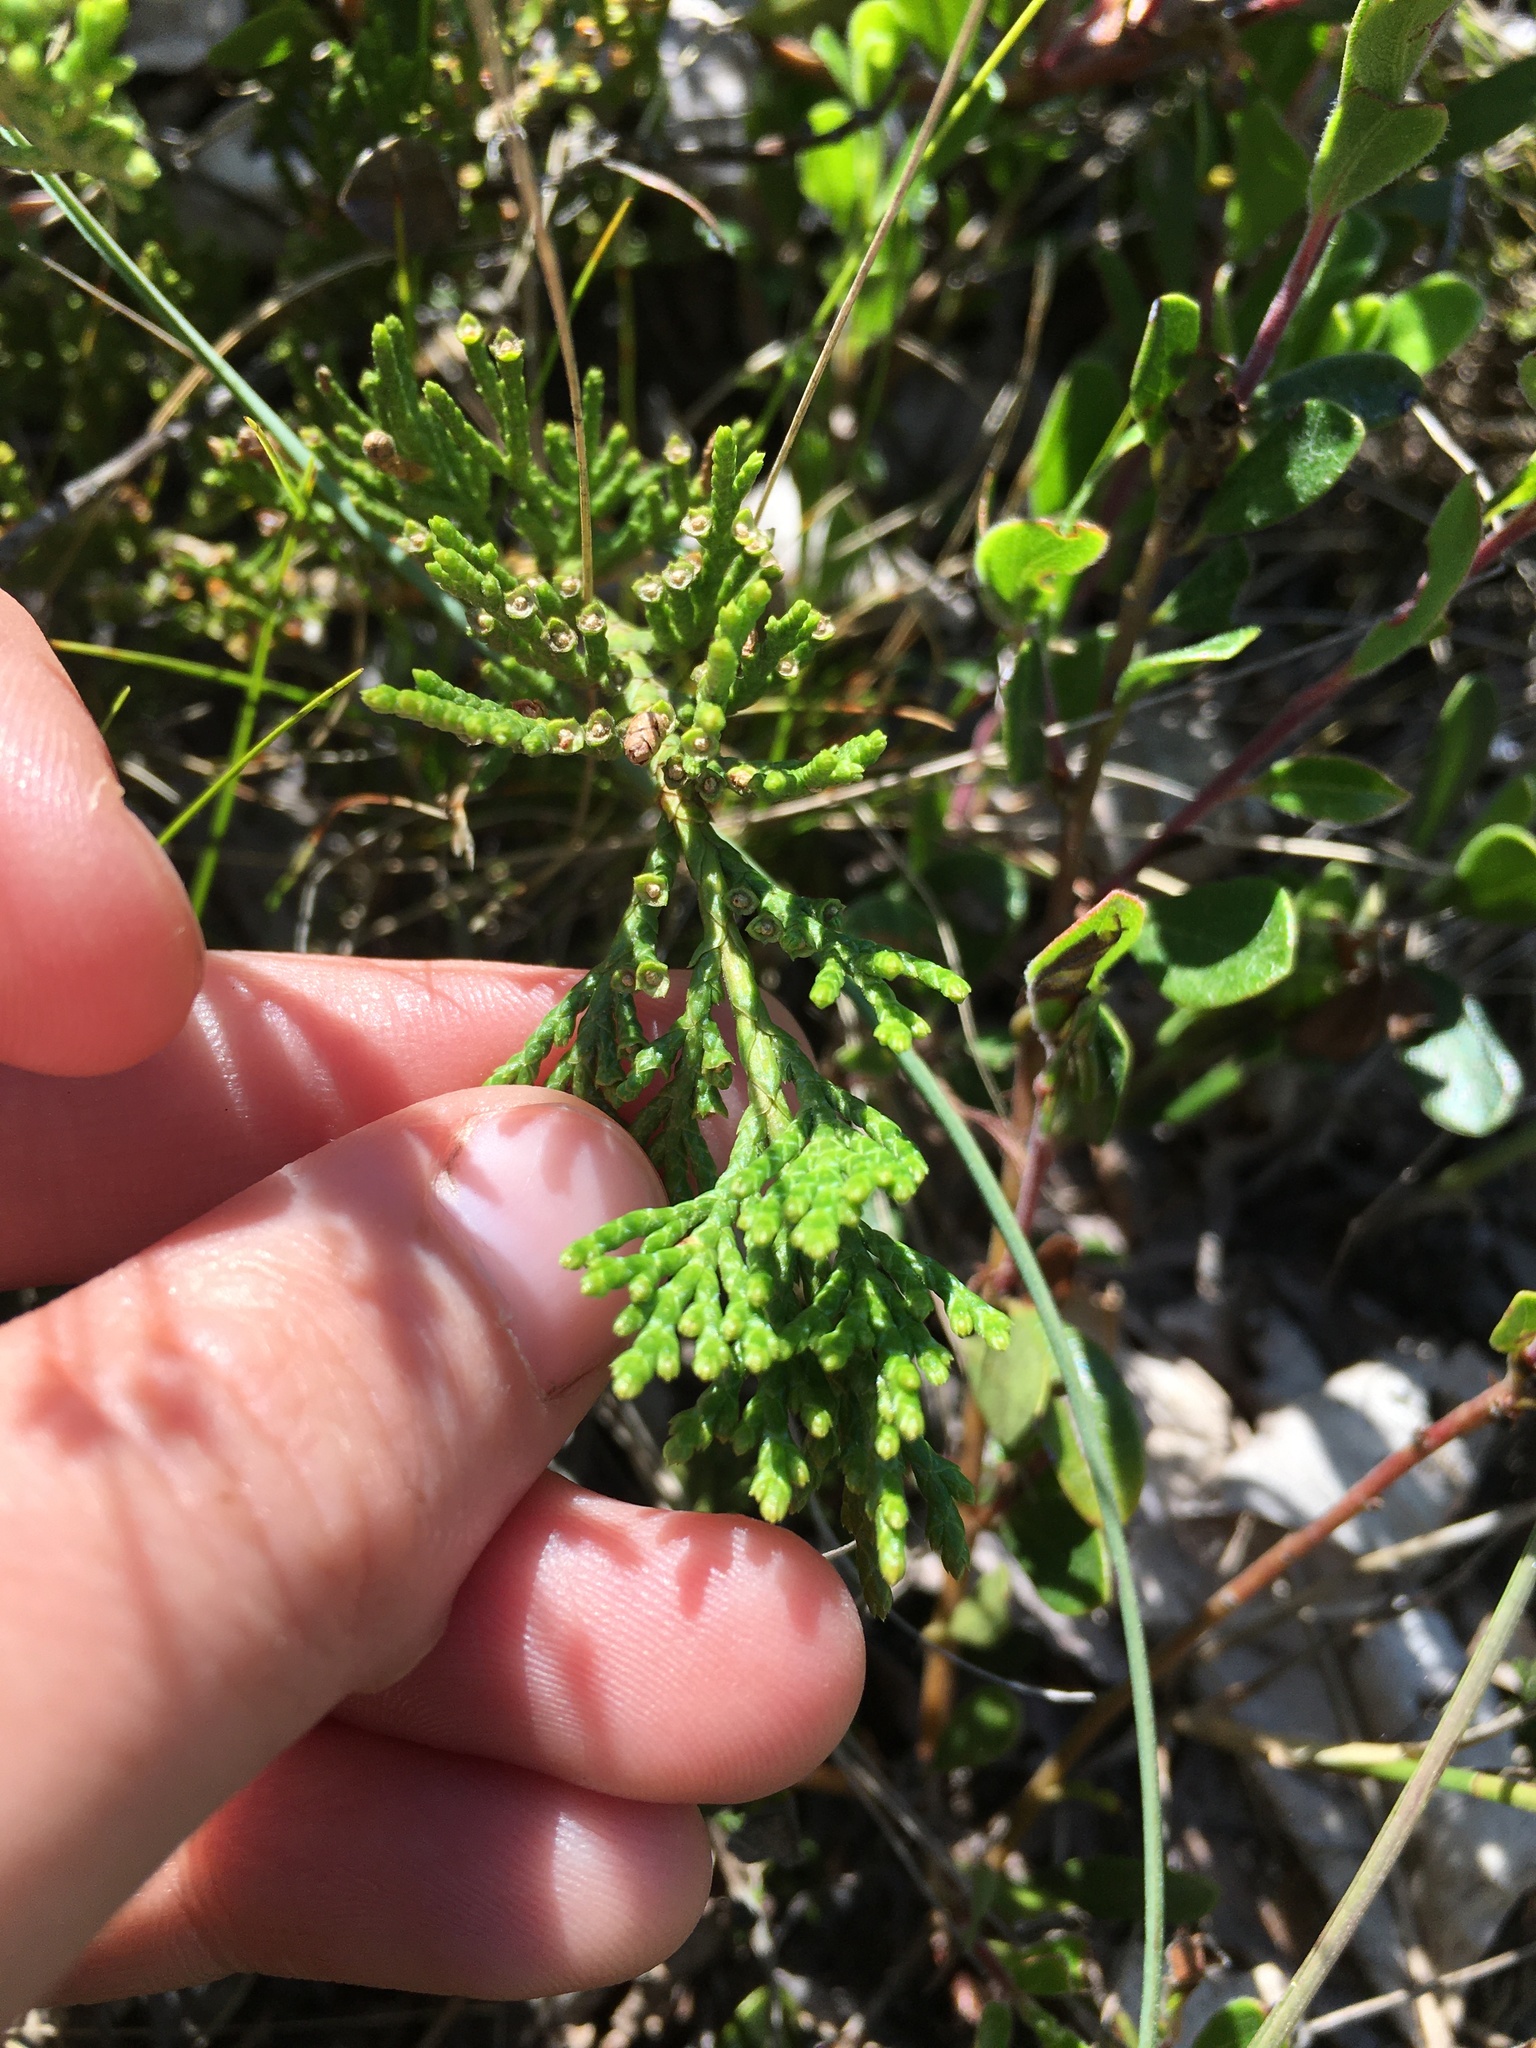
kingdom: Plantae
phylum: Tracheophyta
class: Pinopsida
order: Pinales
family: Cupressaceae
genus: Juniperus
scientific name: Juniperus horizontalis
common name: Creeping juniper
